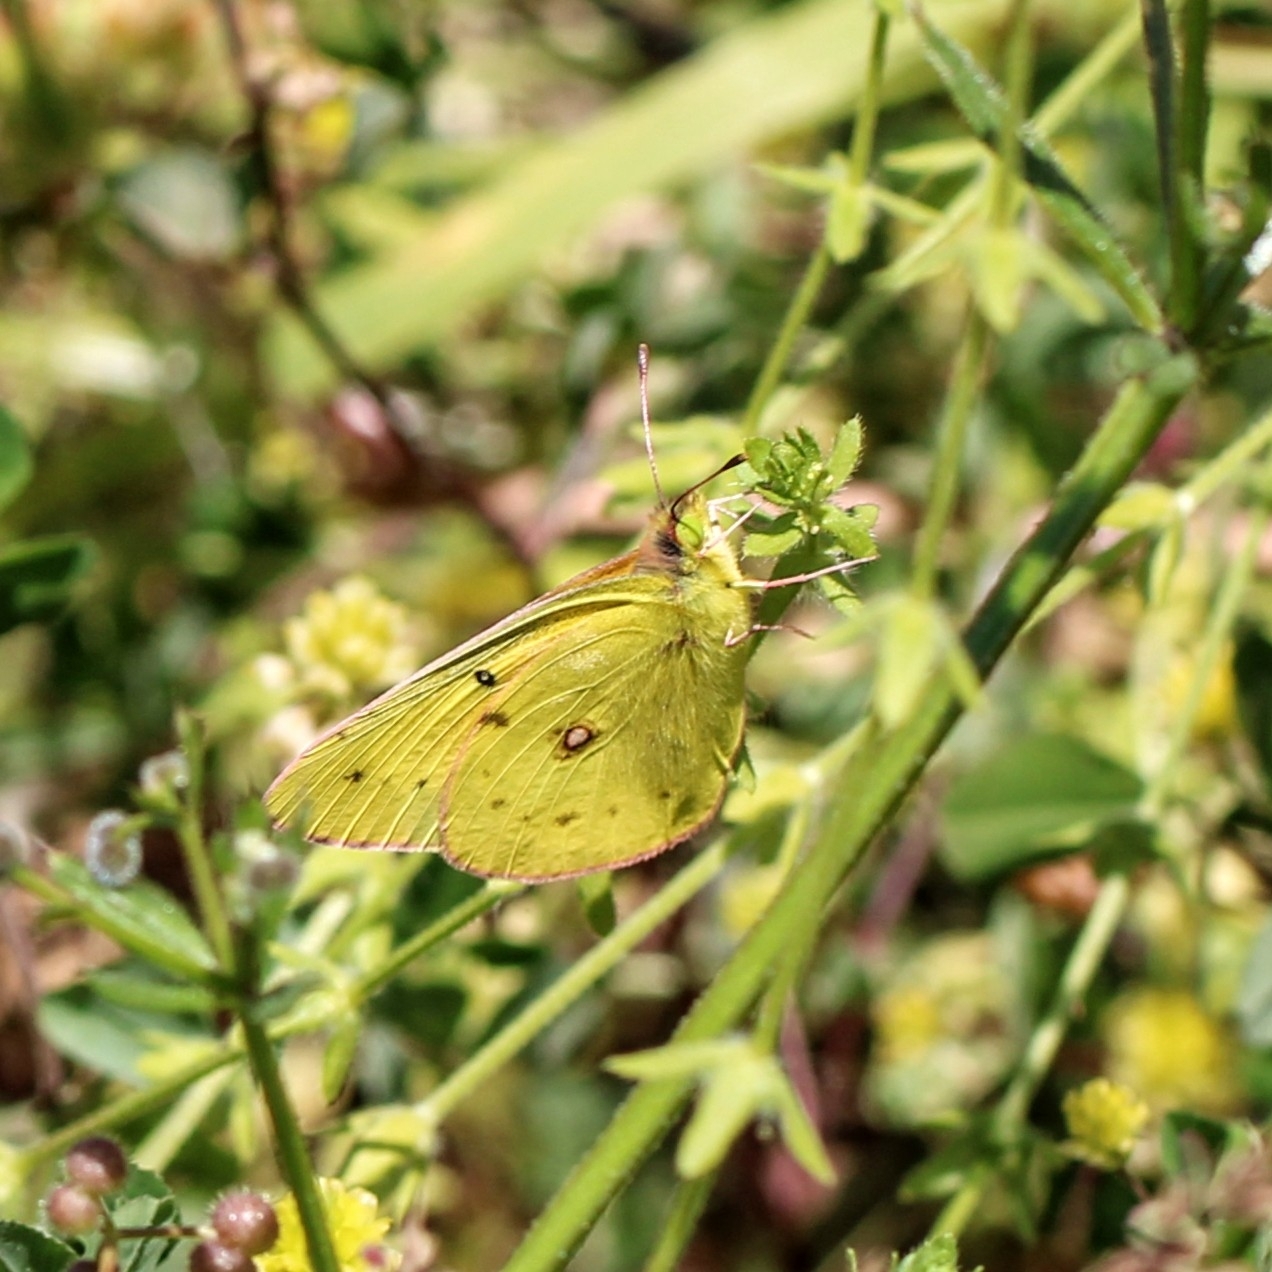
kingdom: Animalia
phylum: Arthropoda
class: Insecta
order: Lepidoptera
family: Pieridae
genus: Colias
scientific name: Colias eurytheme
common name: Alfalfa butterfly
